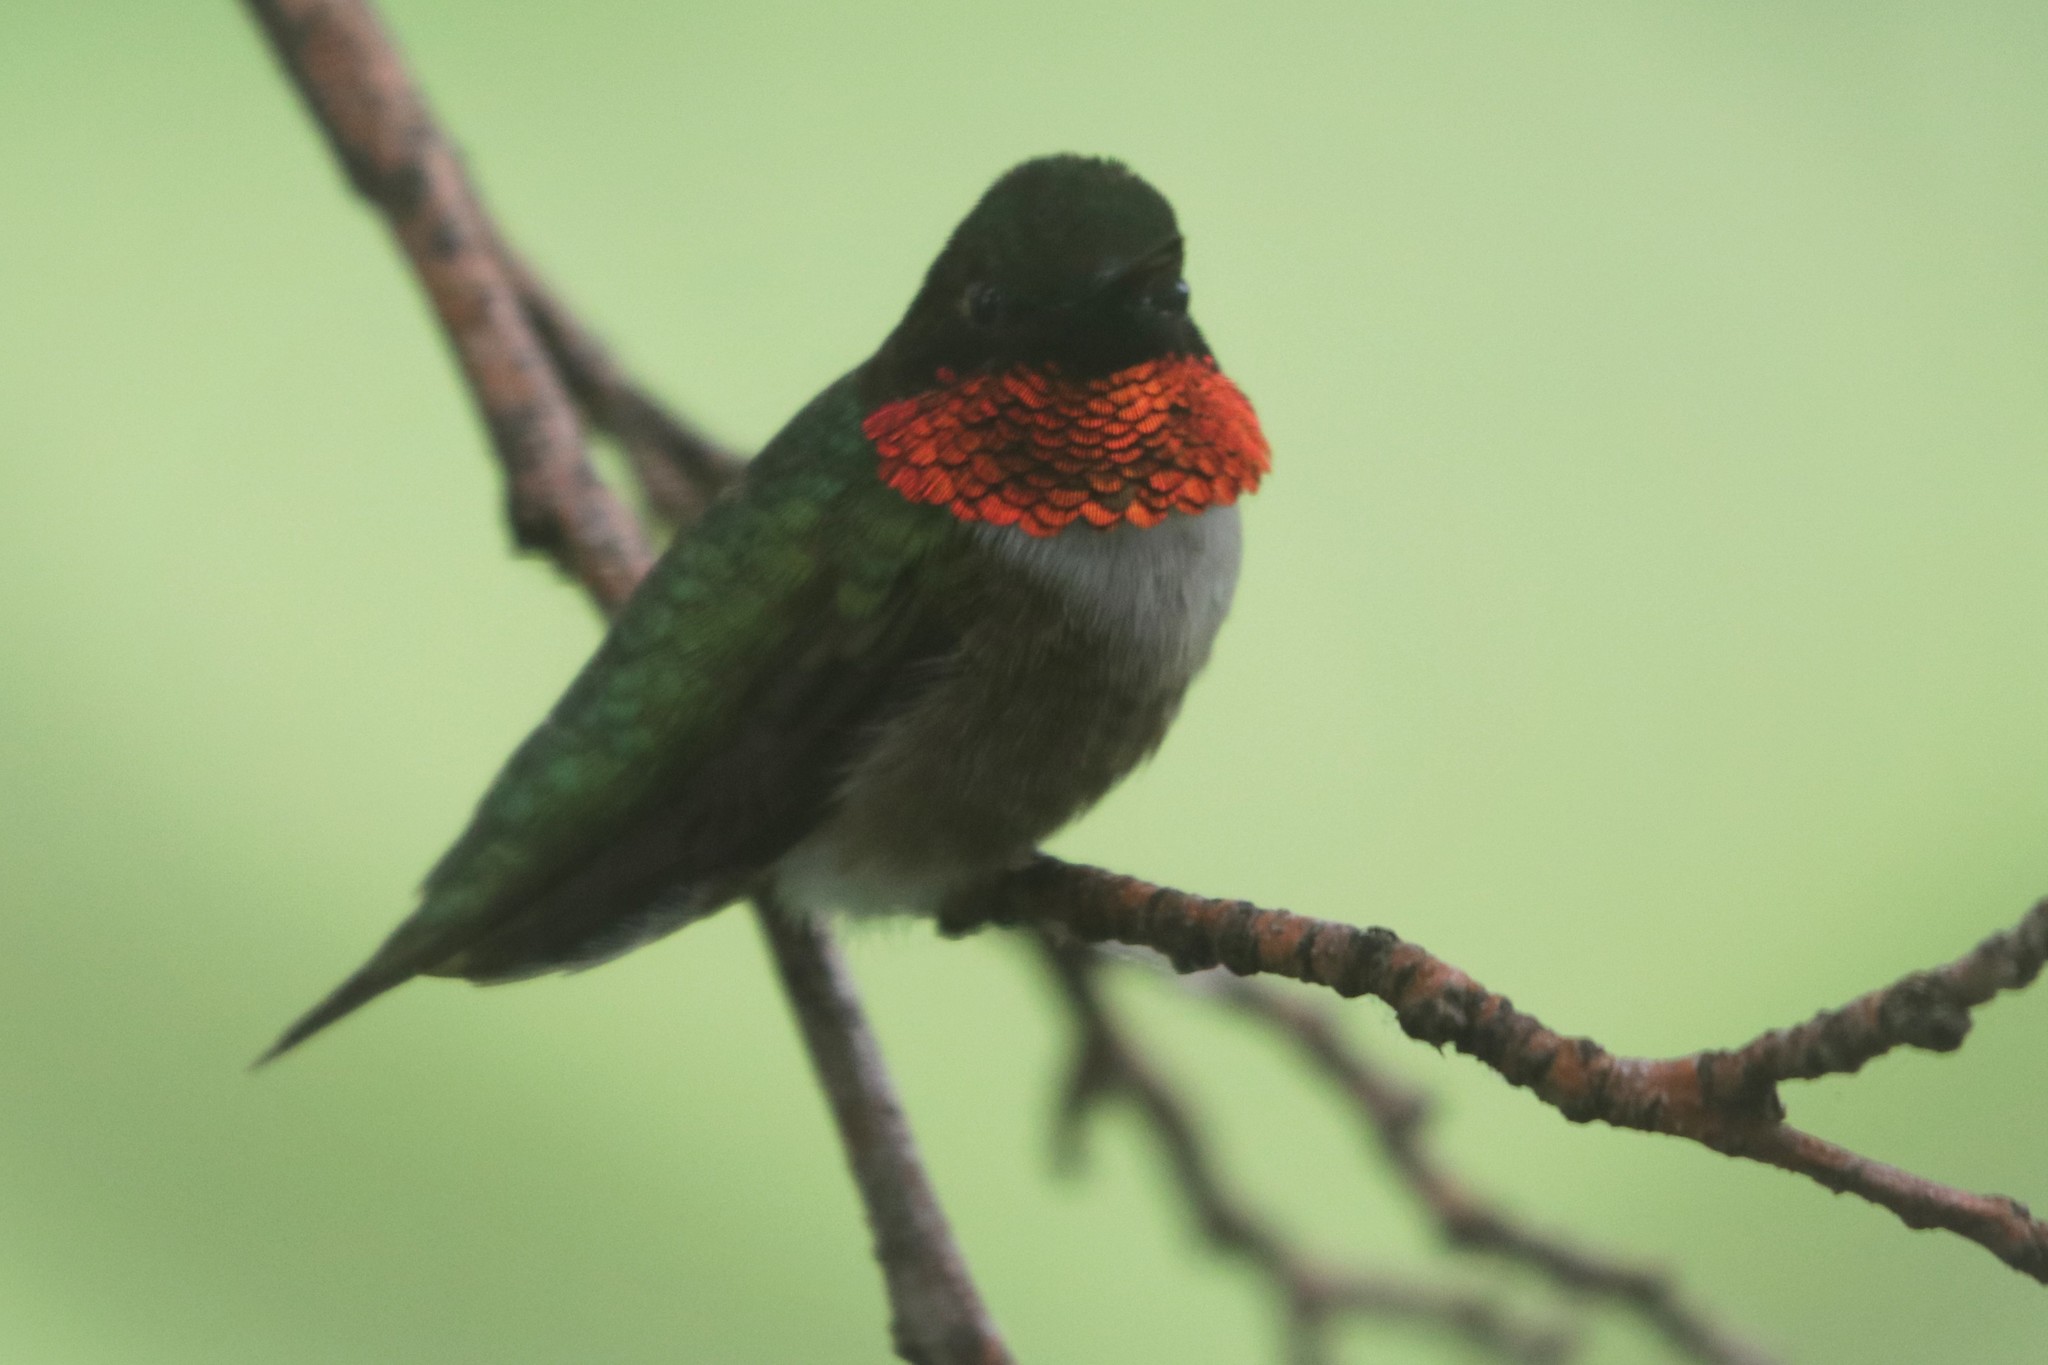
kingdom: Animalia
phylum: Chordata
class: Aves
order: Apodiformes
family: Trochilidae
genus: Archilochus
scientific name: Archilochus colubris
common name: Ruby-throated hummingbird
